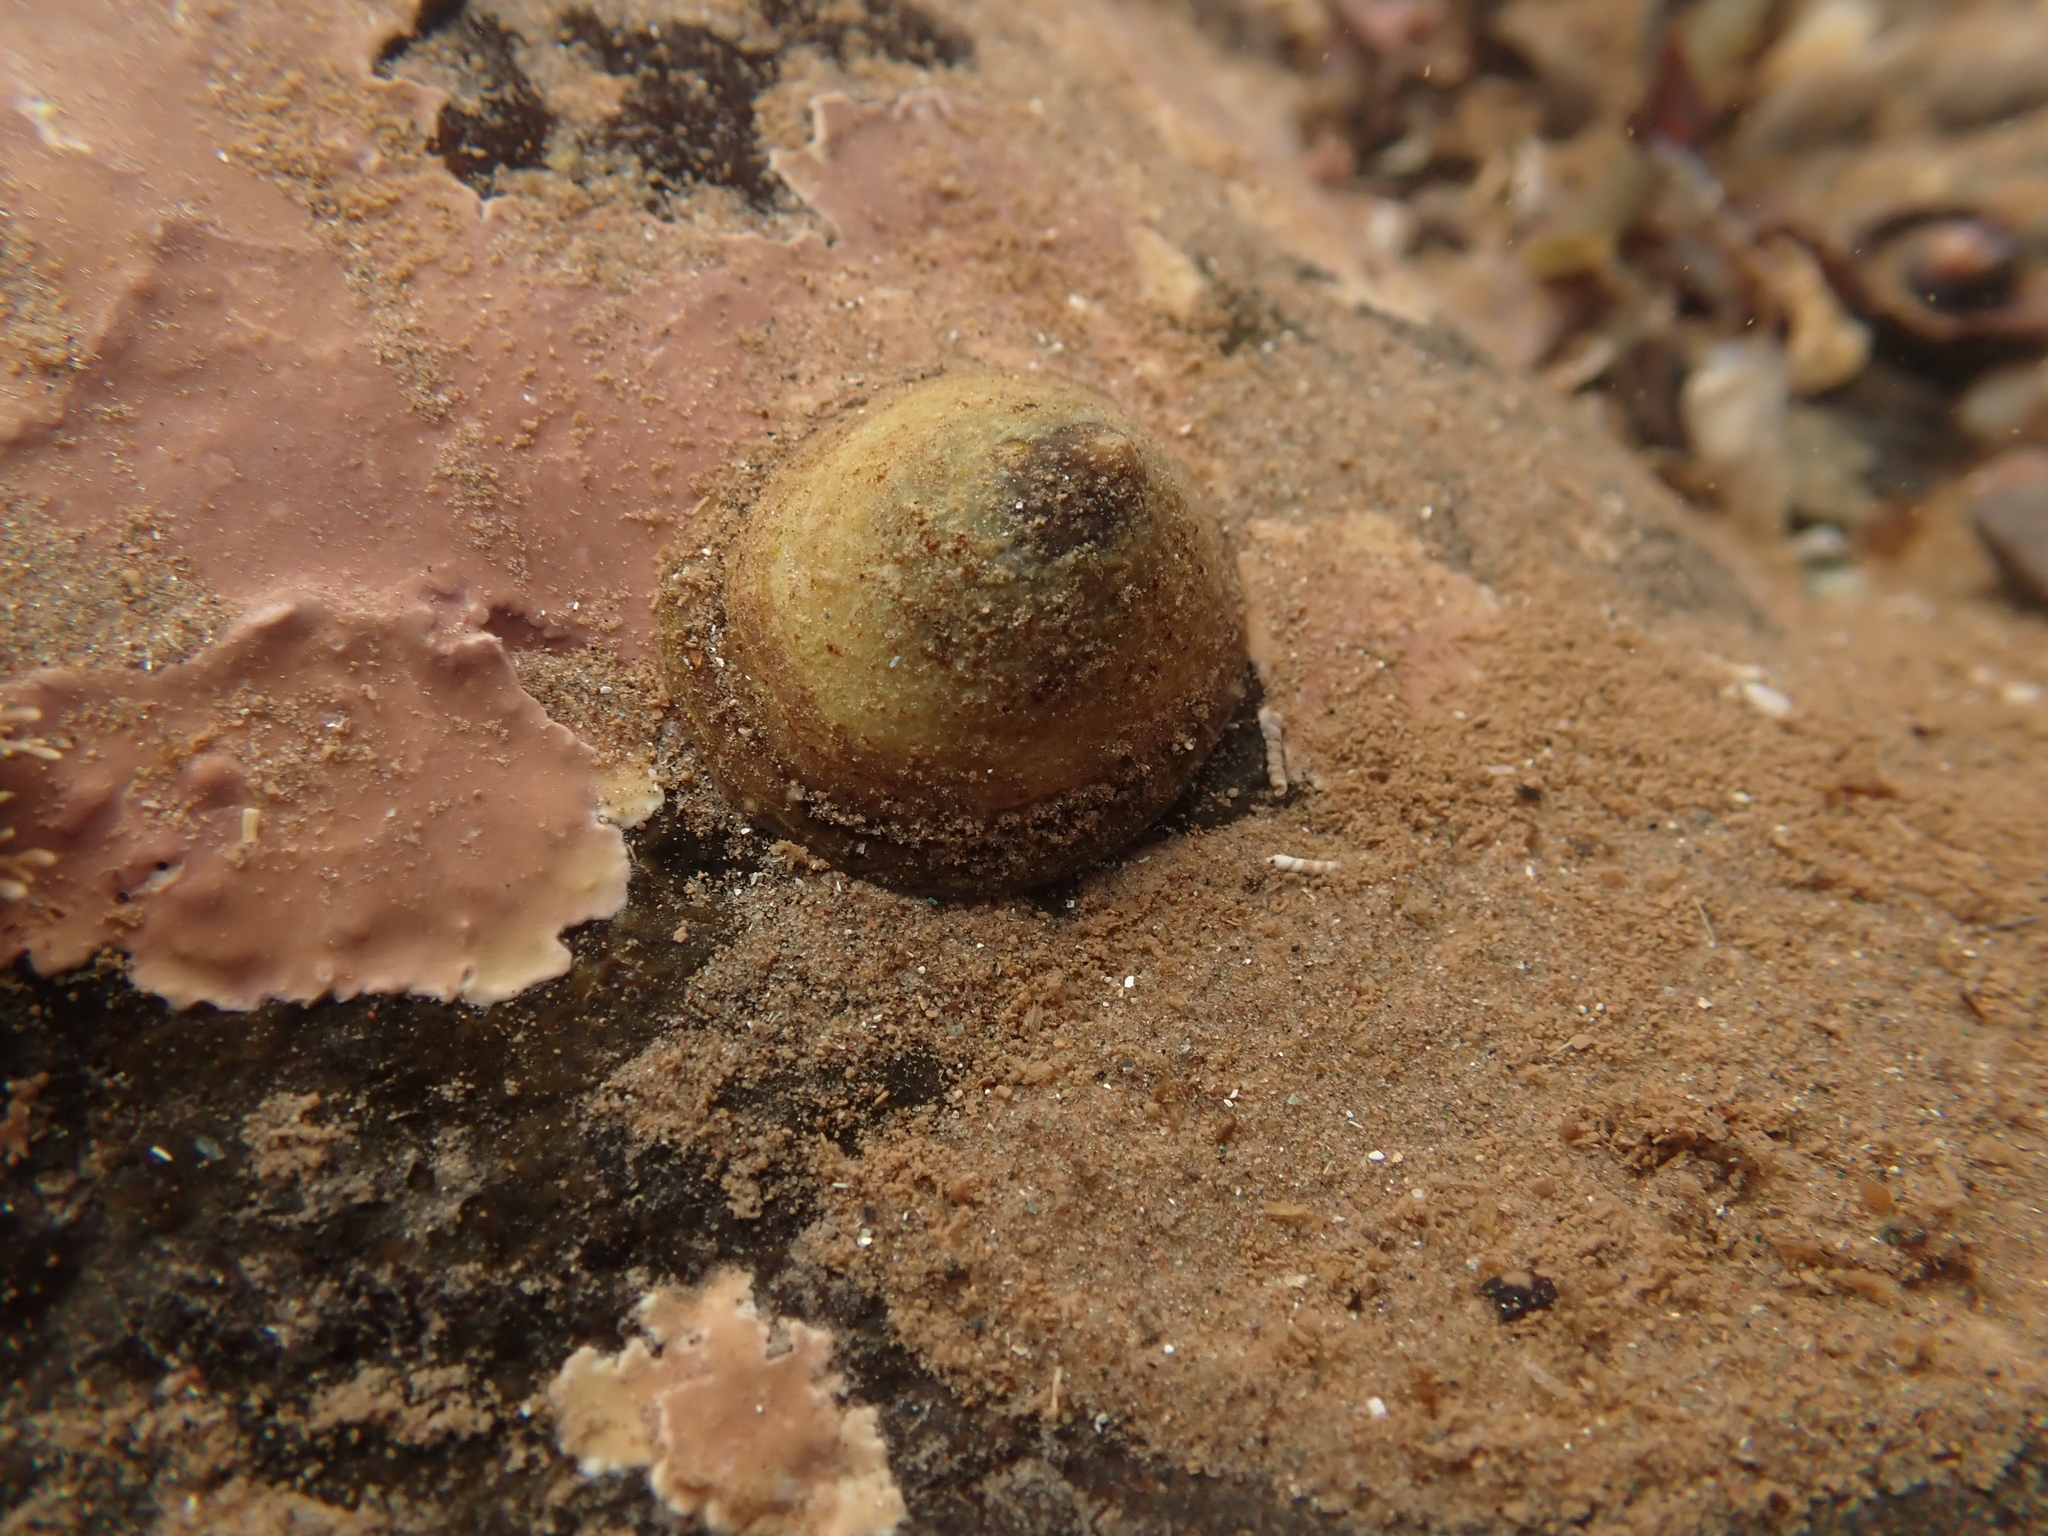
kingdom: Animalia
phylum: Mollusca
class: Gastropoda
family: Lottiidae
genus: Testudinalia
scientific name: Testudinalia testudinalis
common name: Common tortoiseshell limpet
